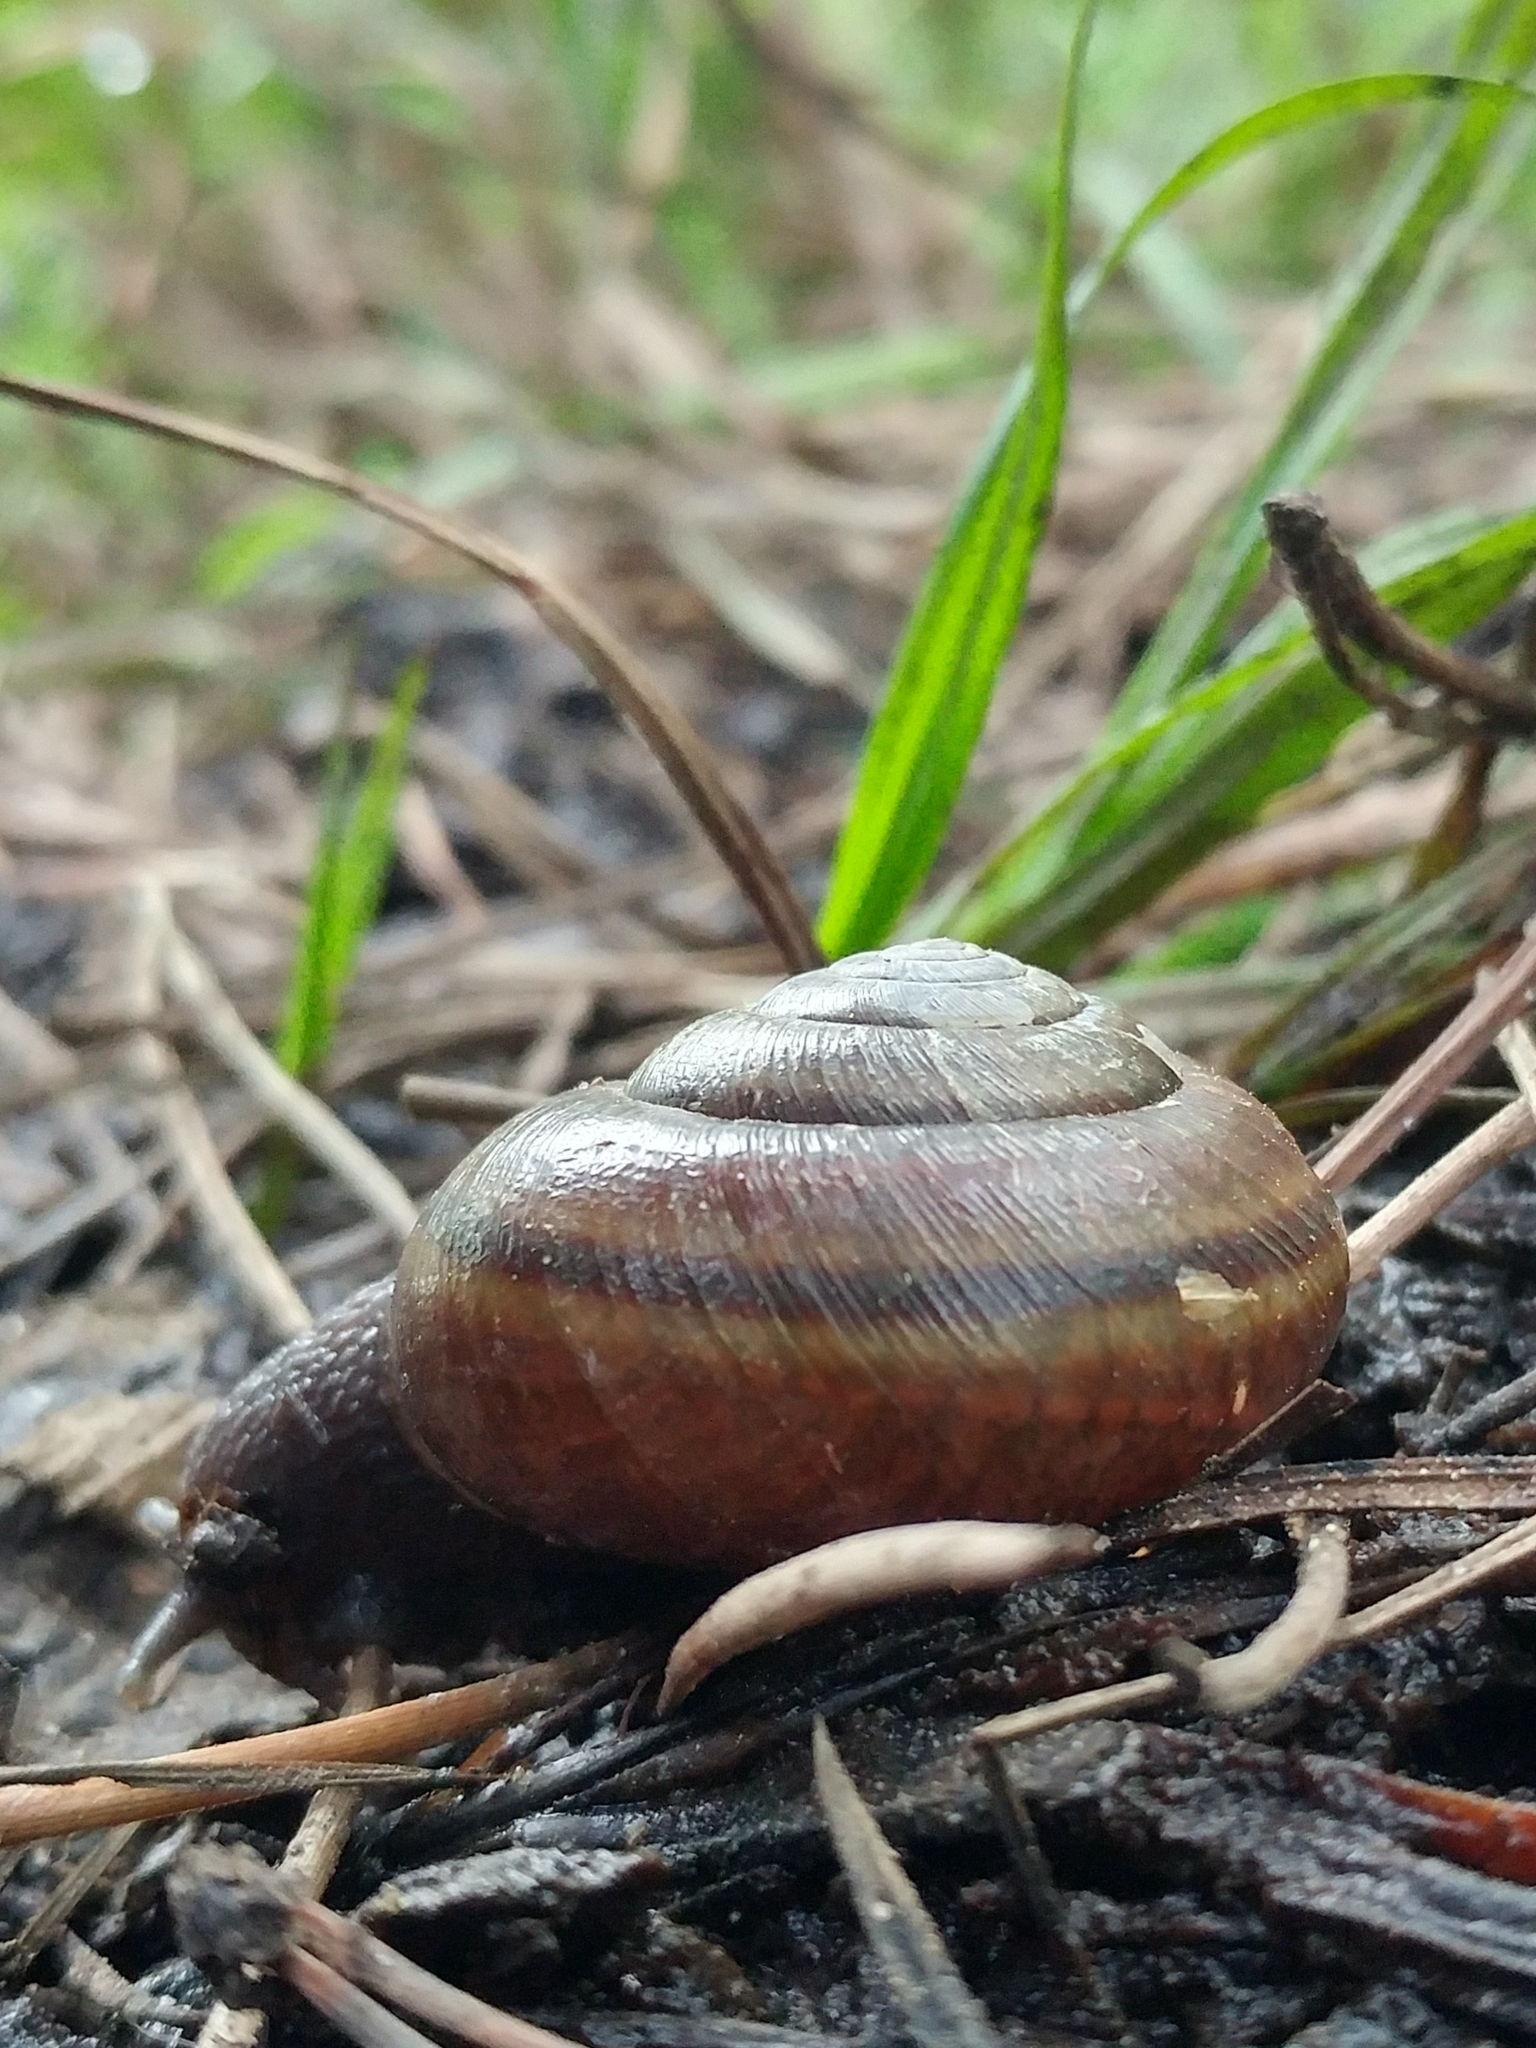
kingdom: Animalia
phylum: Mollusca
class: Gastropoda
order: Stylommatophora
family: Xanthonychidae
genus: Helminthoglypta
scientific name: Helminthoglypta umbilicata
